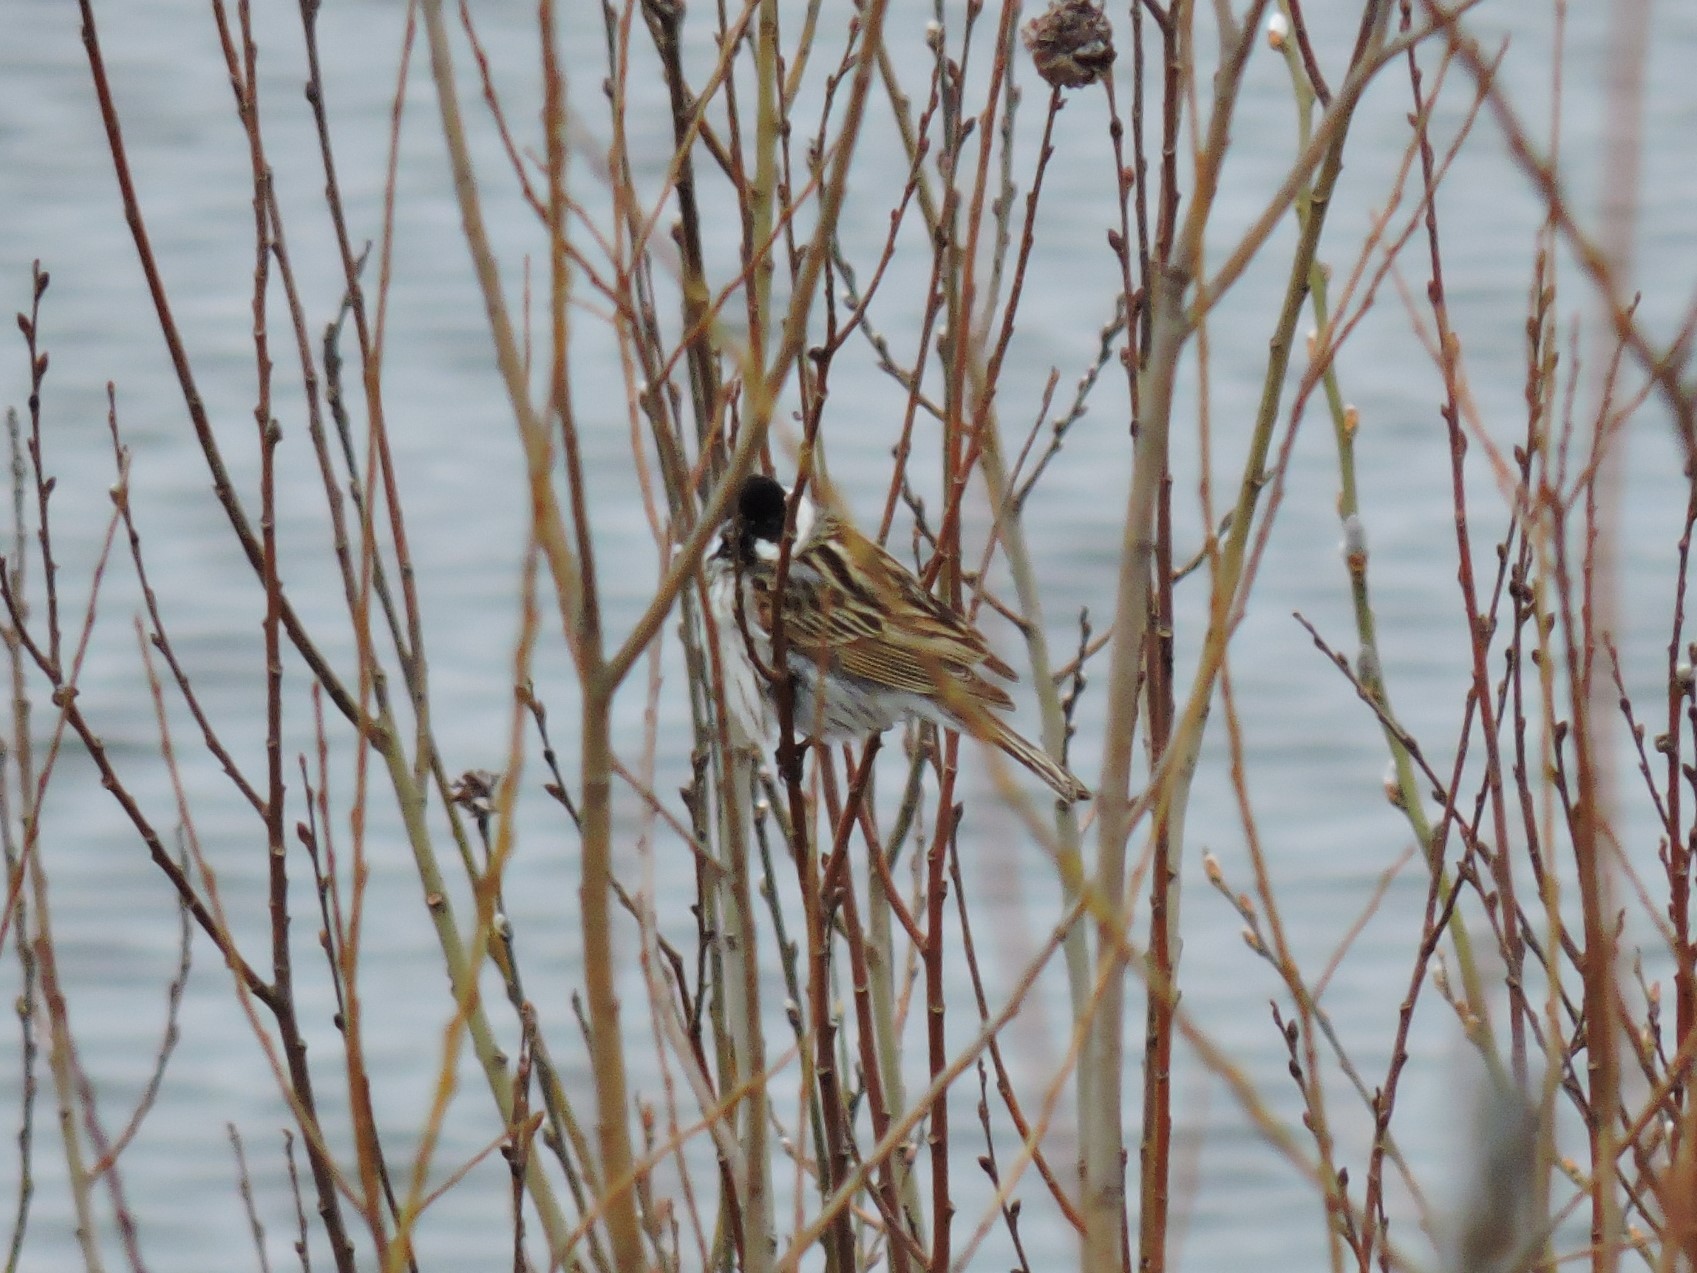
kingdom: Animalia
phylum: Chordata
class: Aves
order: Passeriformes
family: Emberizidae
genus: Emberiza
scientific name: Emberiza schoeniclus
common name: Reed bunting
